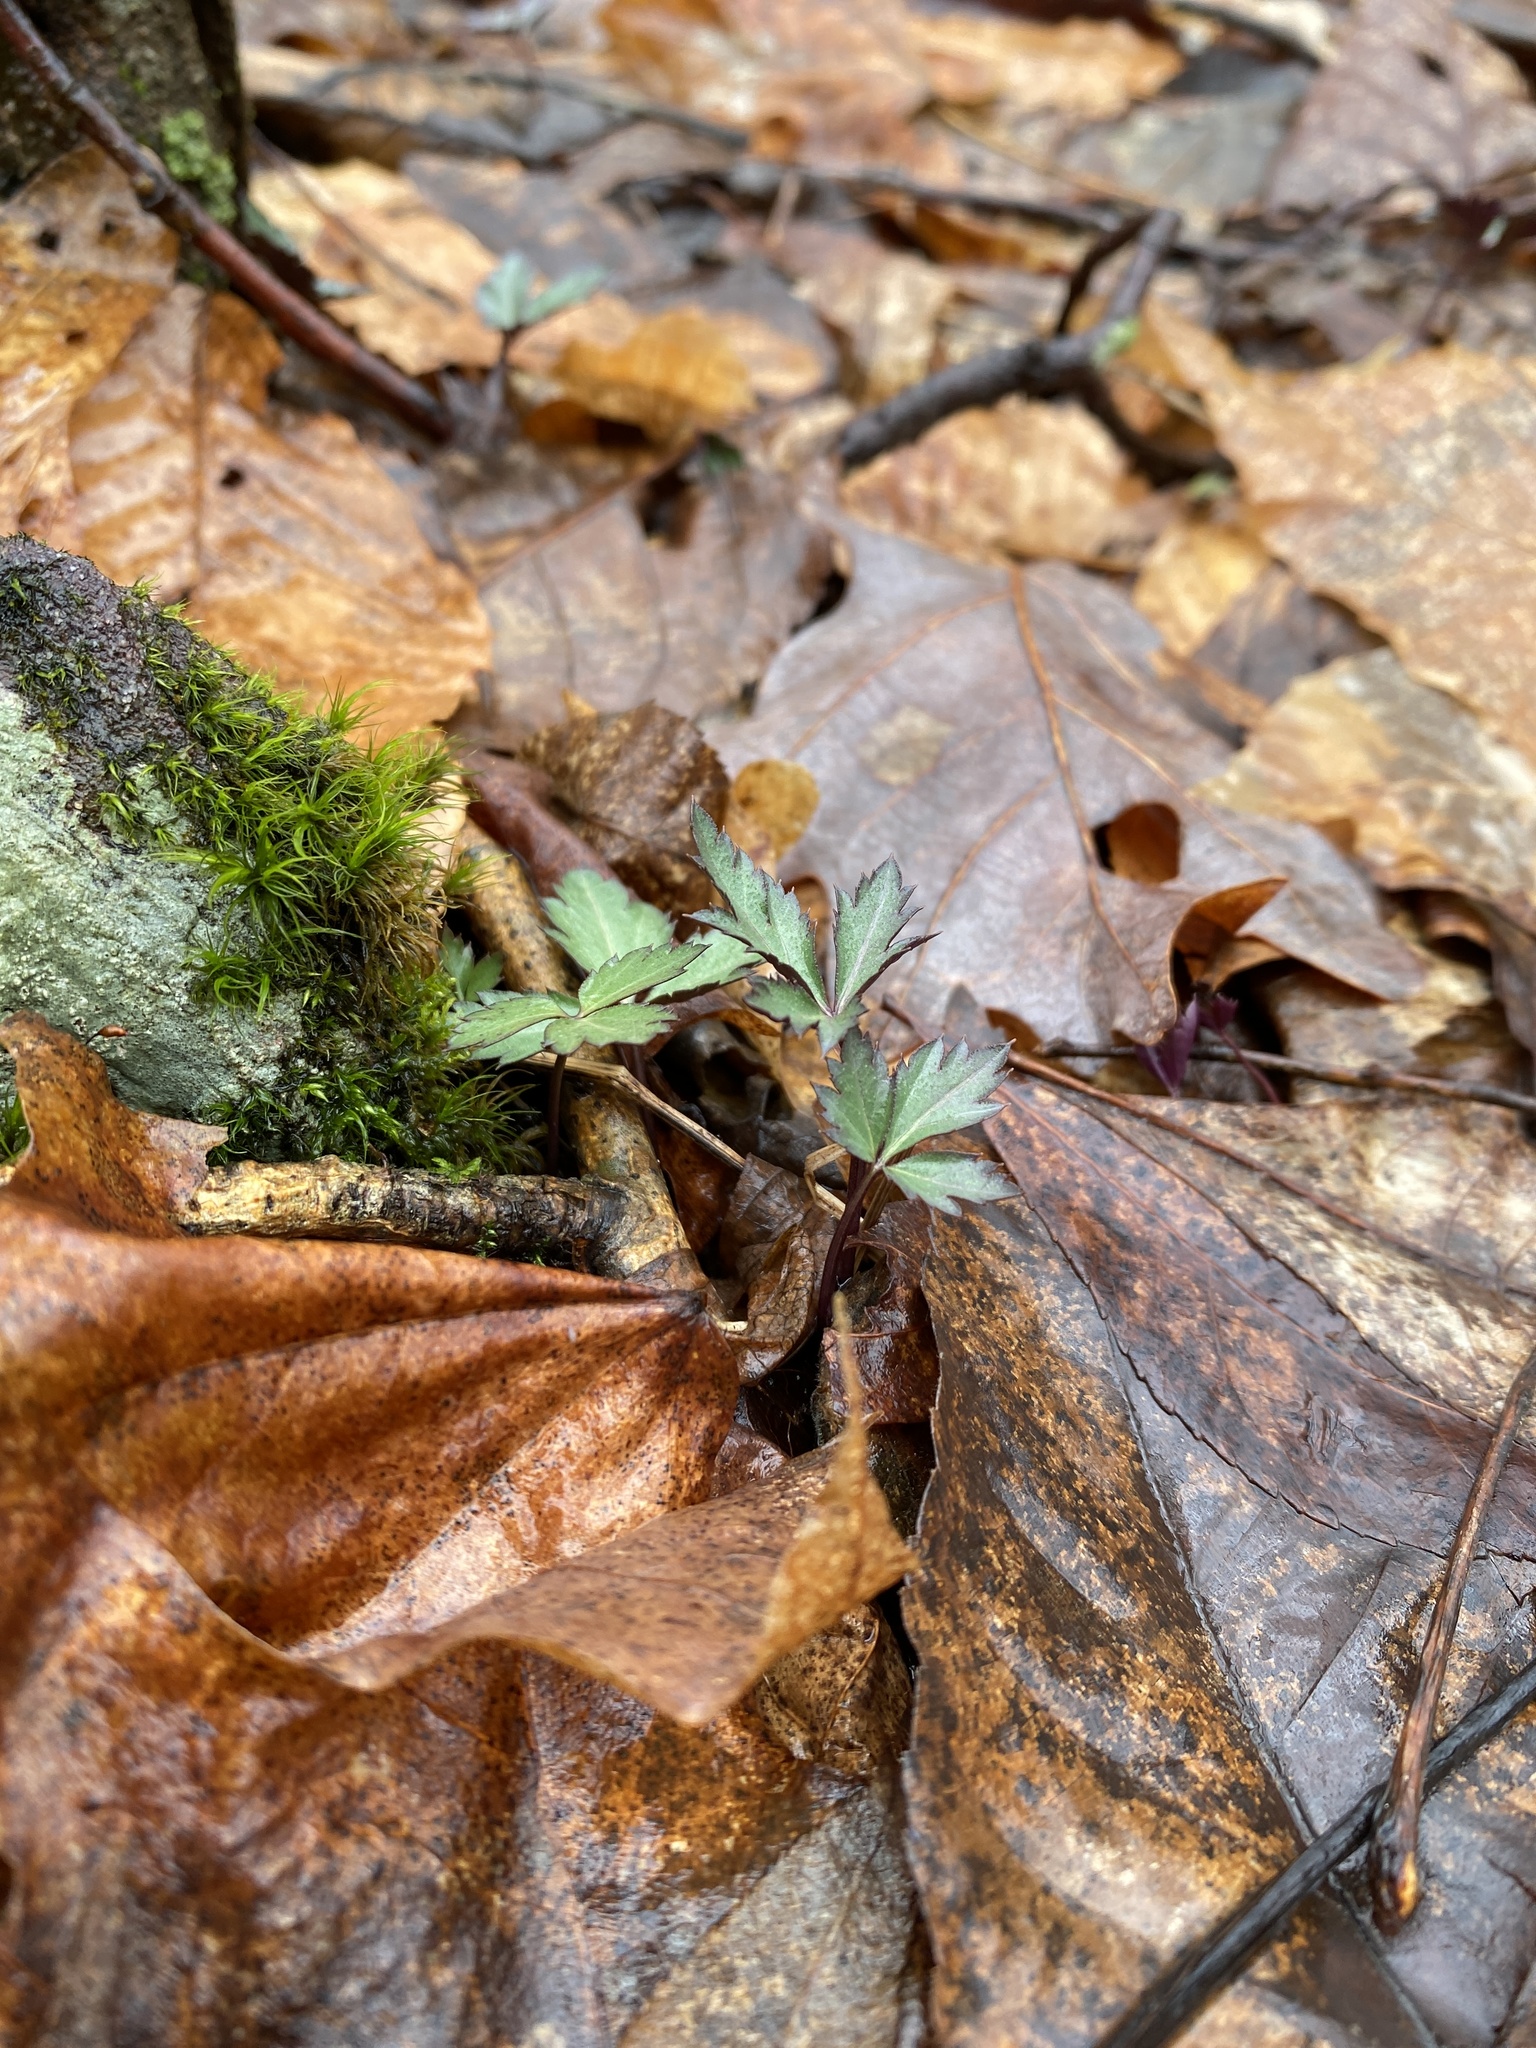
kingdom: Plantae
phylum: Tracheophyta
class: Magnoliopsida
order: Brassicales
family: Brassicaceae
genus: Cardamine
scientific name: Cardamine diphylla
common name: Broad-leaved toothwort
